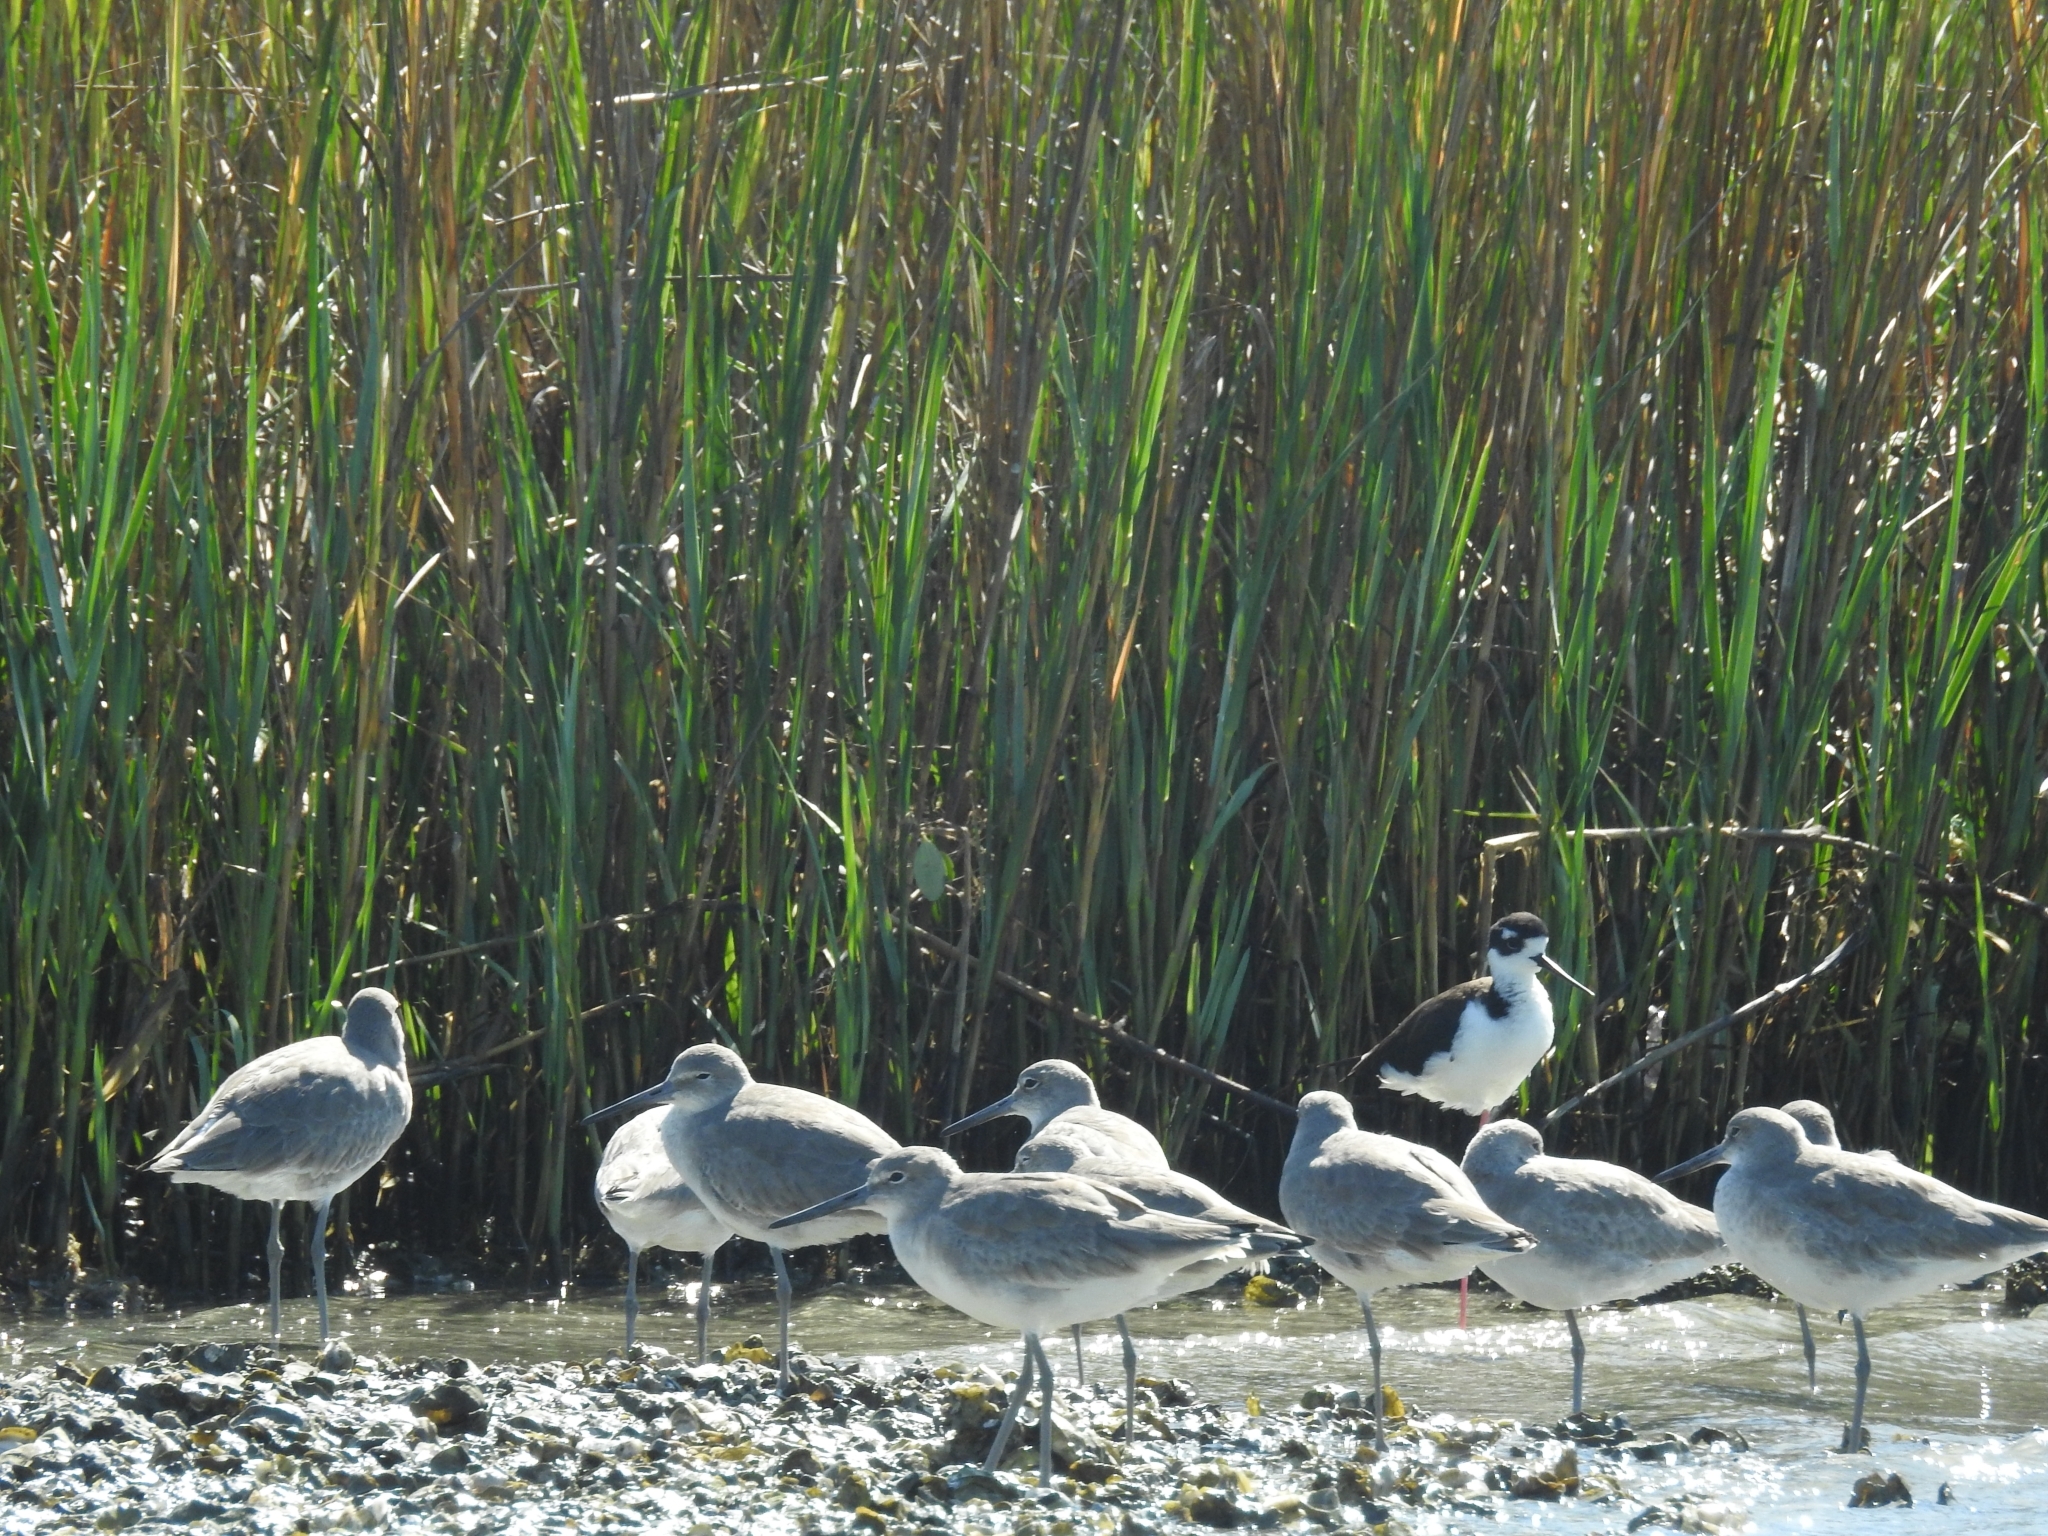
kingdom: Animalia
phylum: Chordata
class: Aves
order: Charadriiformes
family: Scolopacidae
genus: Tringa
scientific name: Tringa semipalmata
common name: Willet
